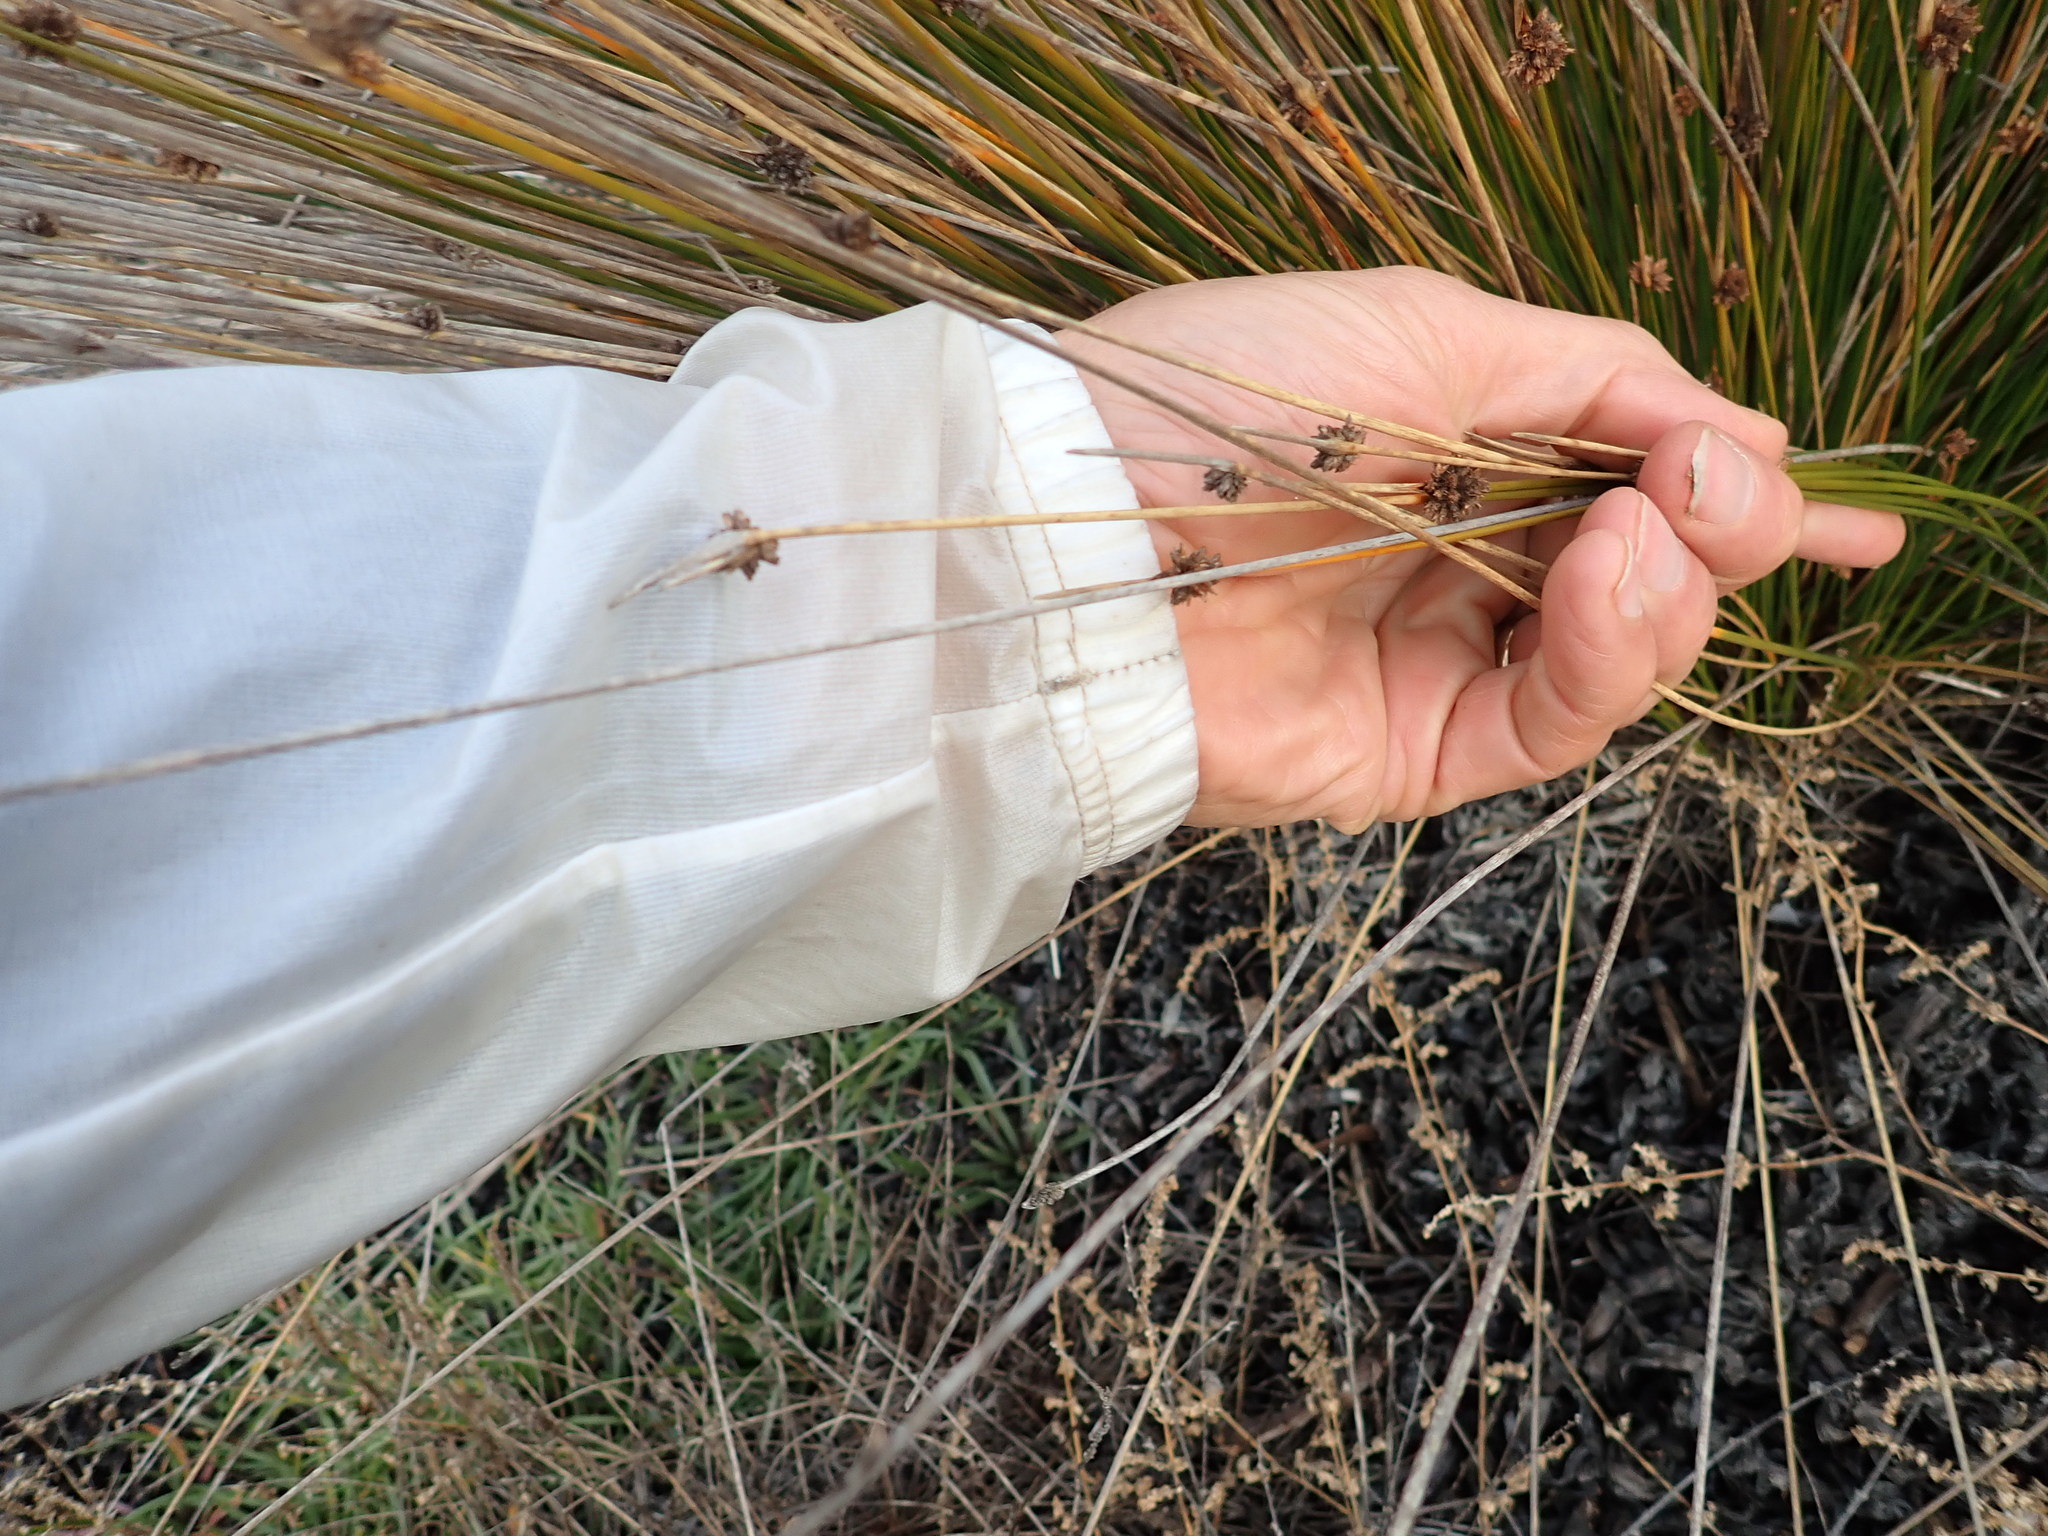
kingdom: Plantae
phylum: Tracheophyta
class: Liliopsida
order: Poales
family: Cyperaceae
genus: Ficinia
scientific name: Ficinia nodosa
